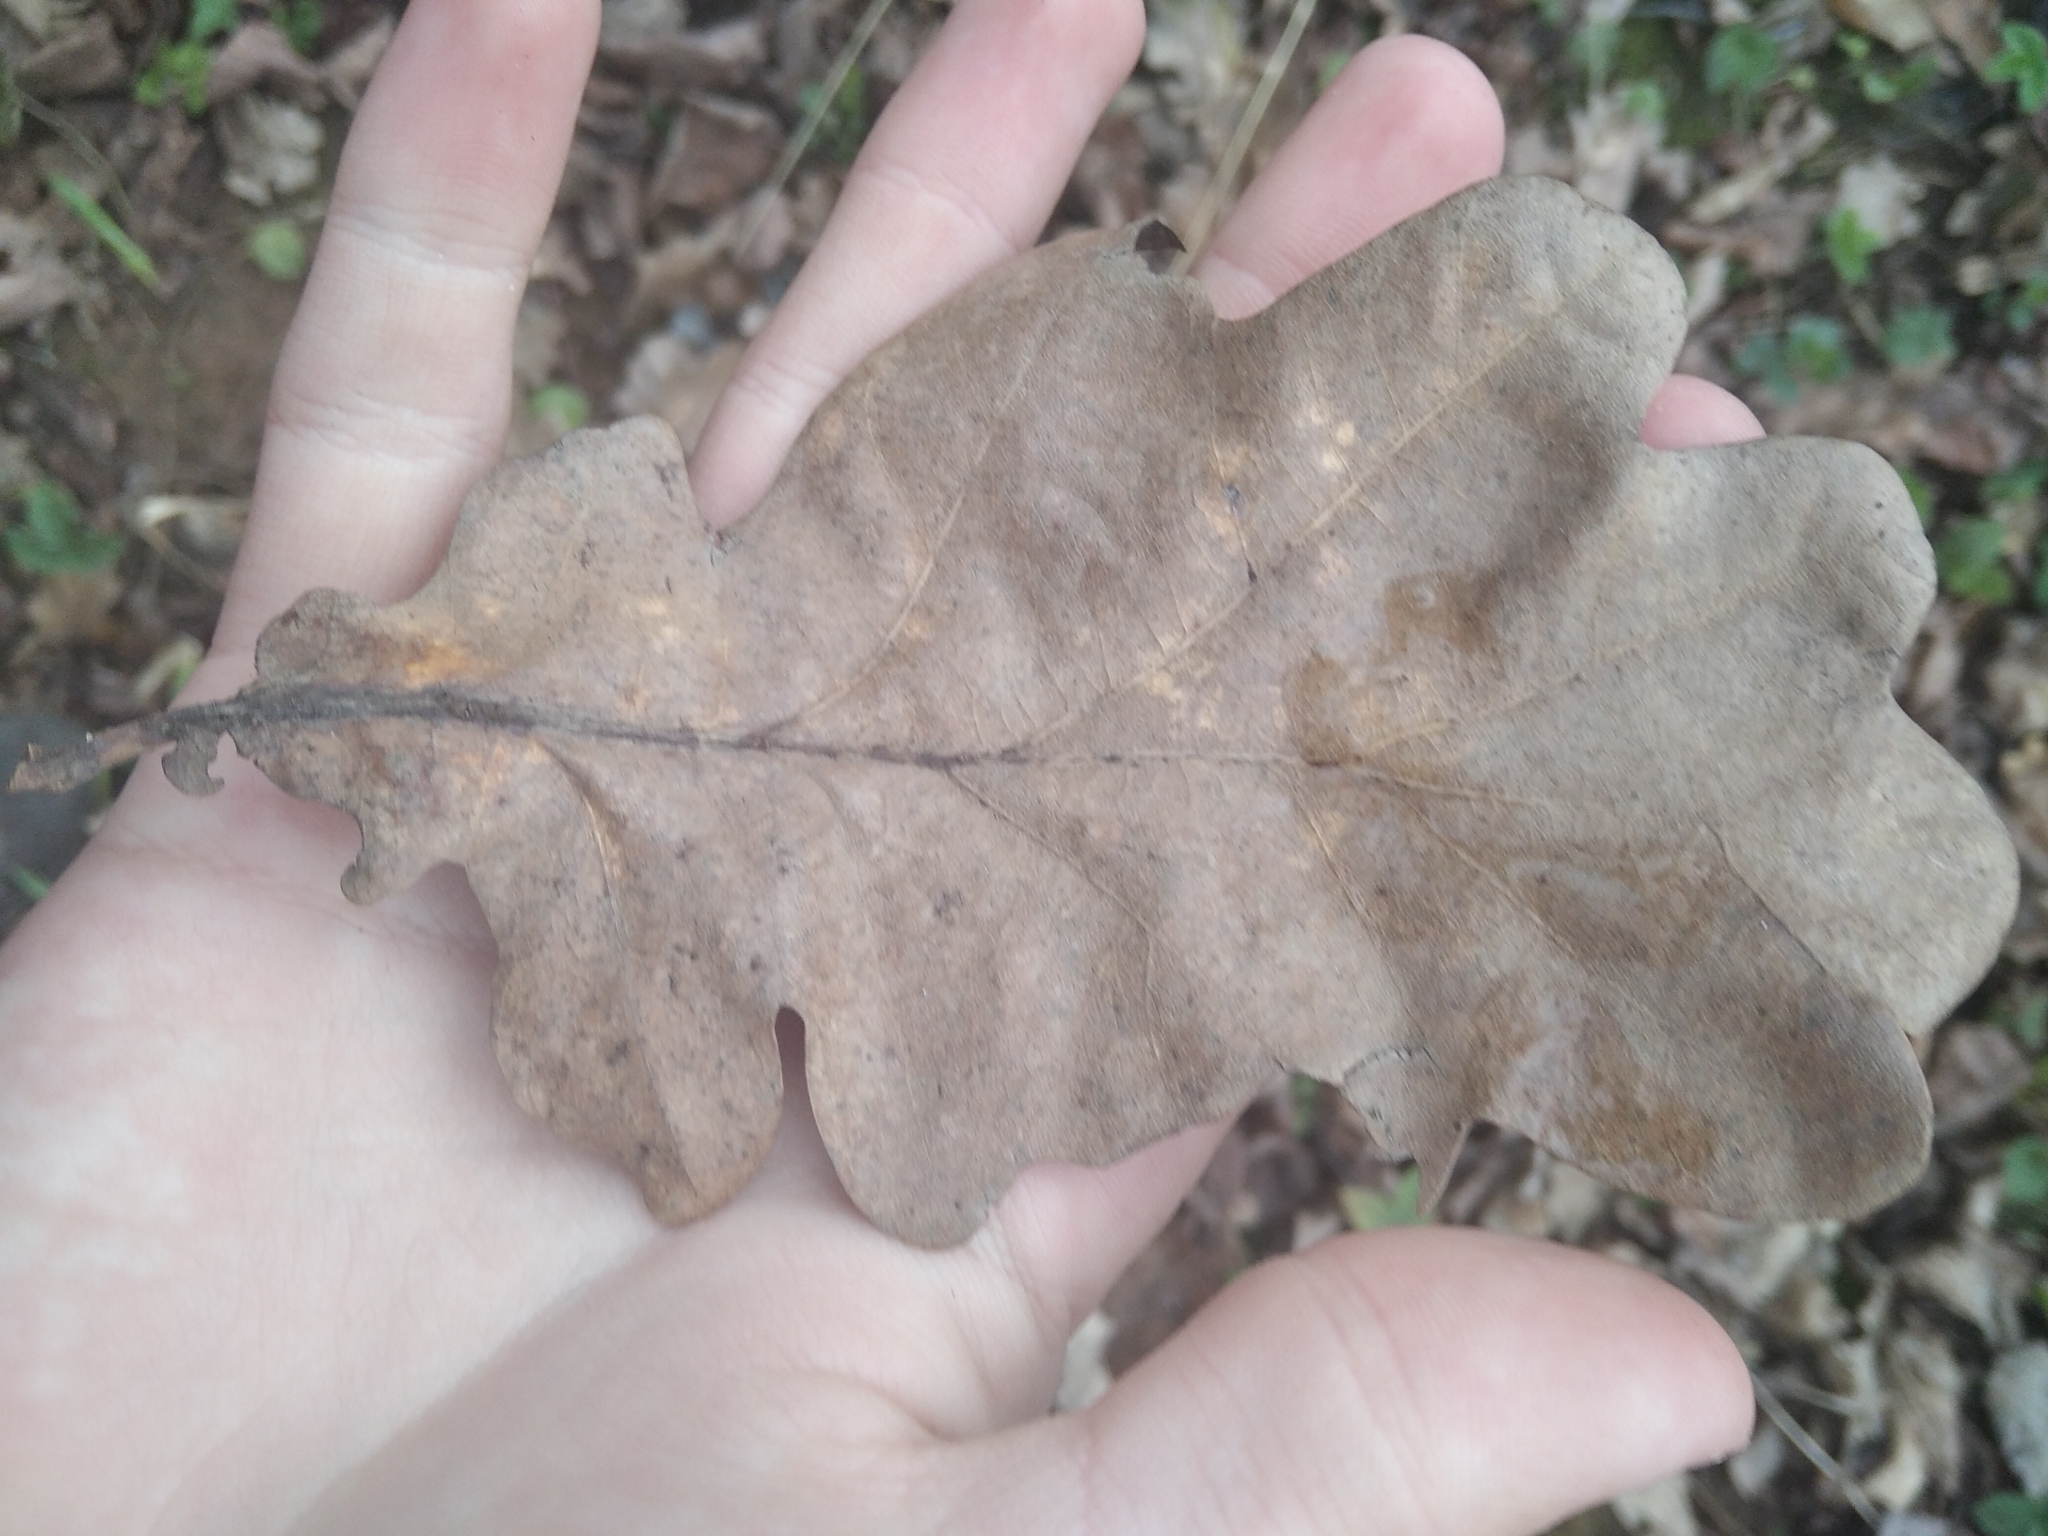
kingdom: Plantae
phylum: Tracheophyta
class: Magnoliopsida
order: Fagales
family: Fagaceae
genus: Quercus
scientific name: Quercus robur
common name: Pedunculate oak
